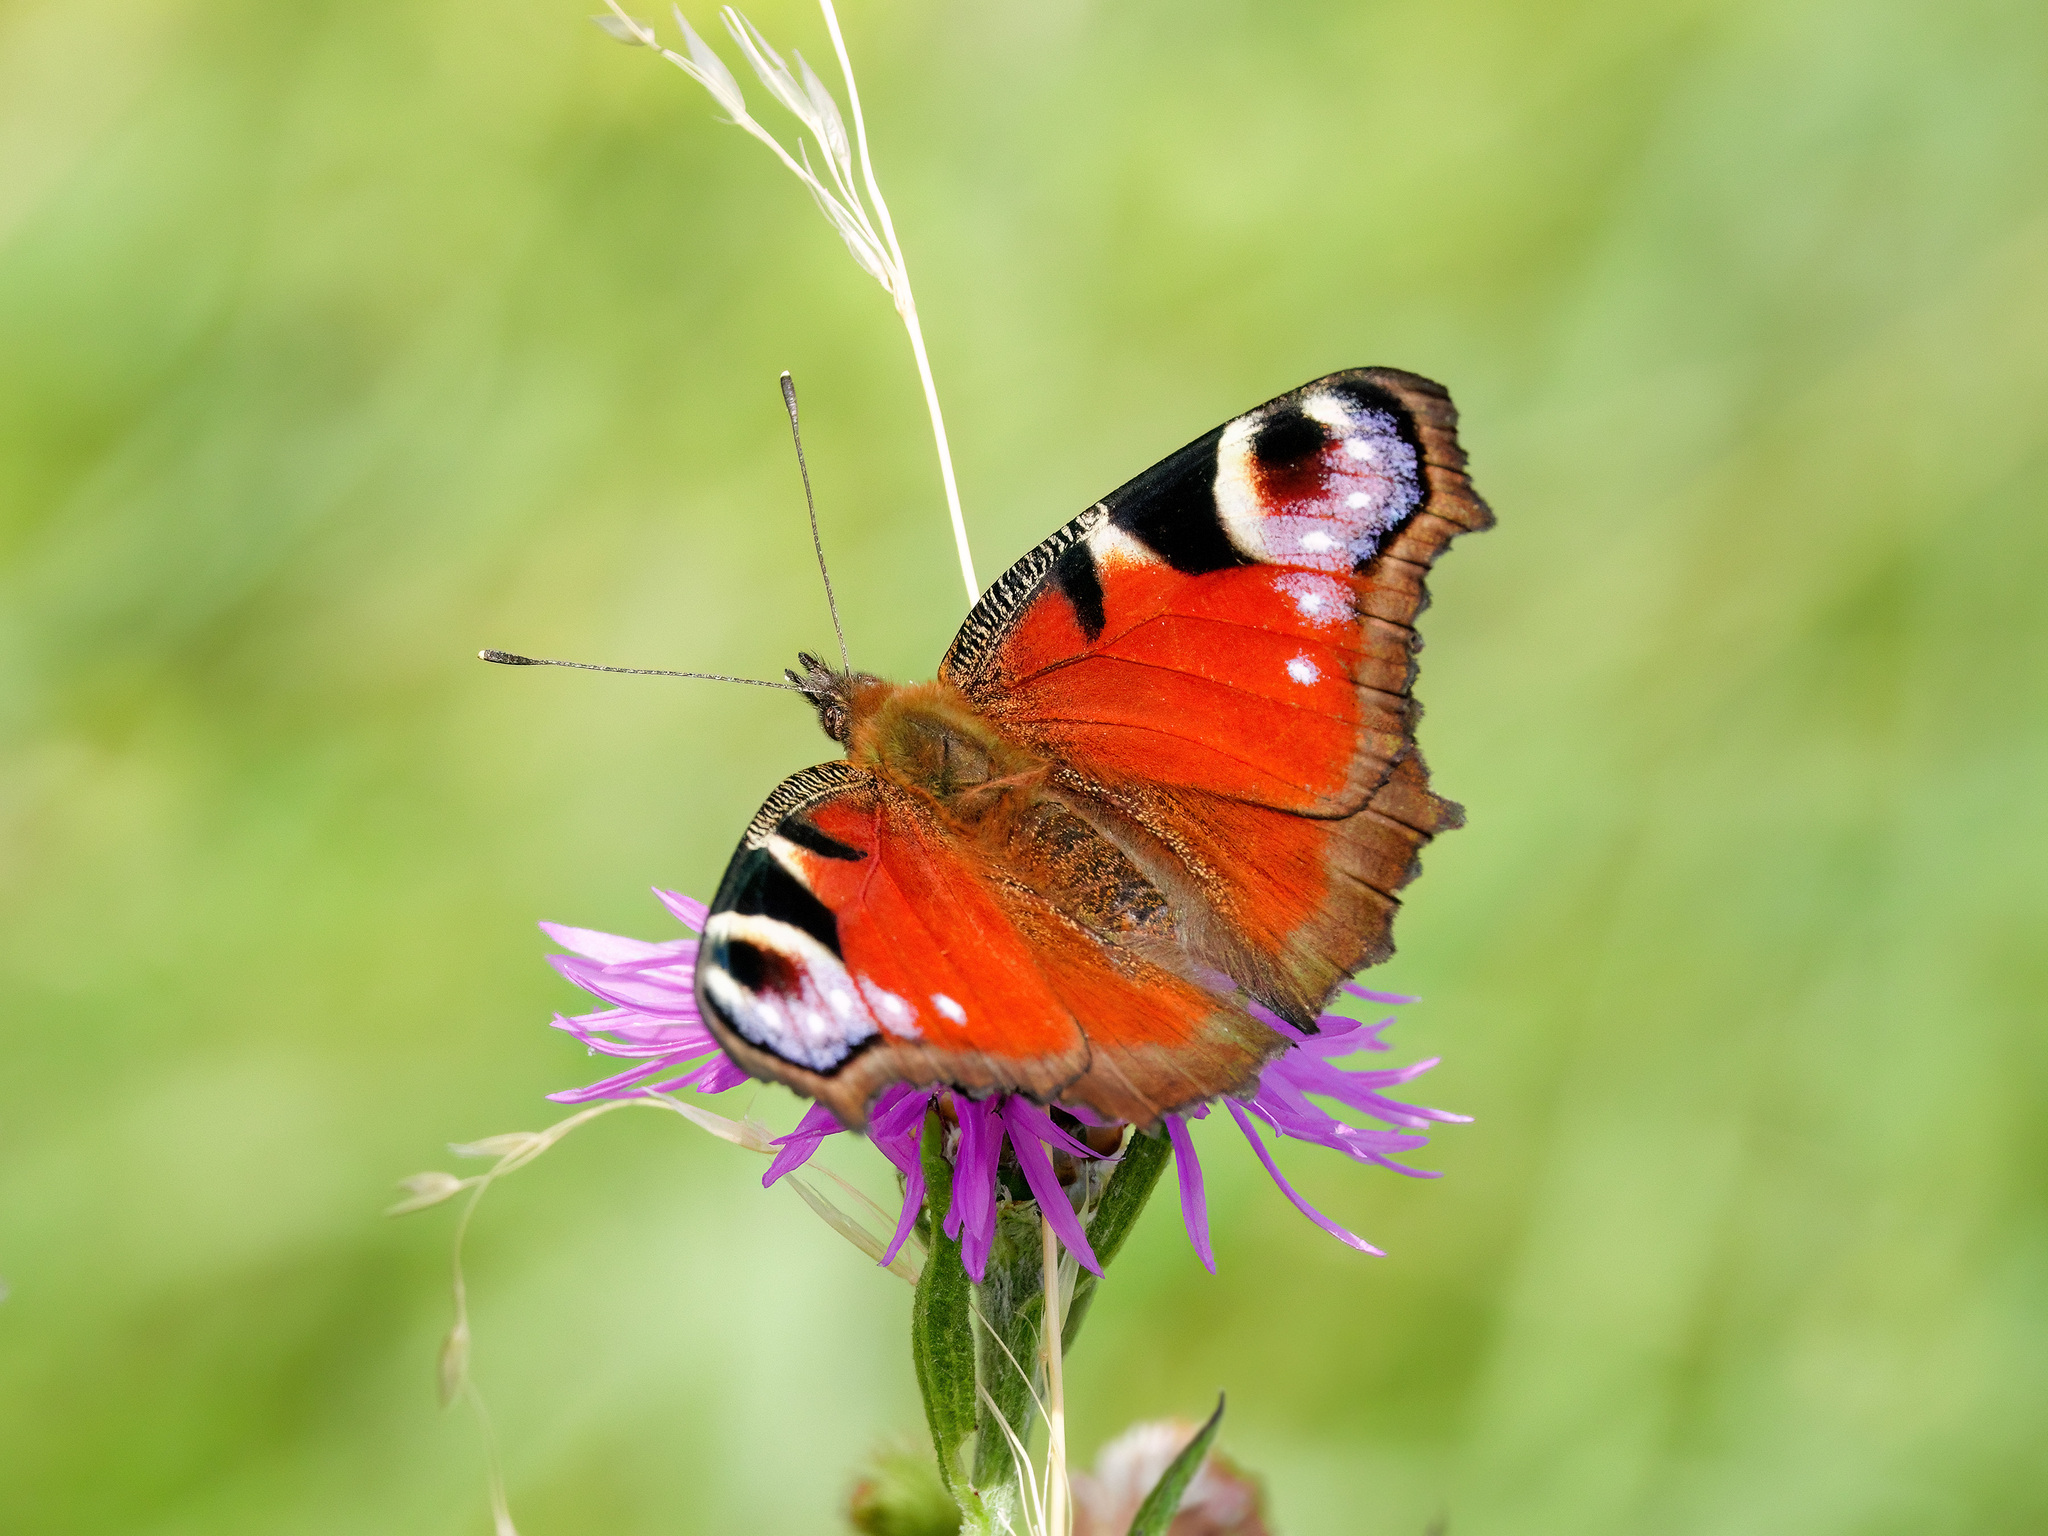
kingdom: Animalia
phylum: Arthropoda
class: Insecta
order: Lepidoptera
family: Nymphalidae
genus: Aglais
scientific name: Aglais io
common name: Peacock
